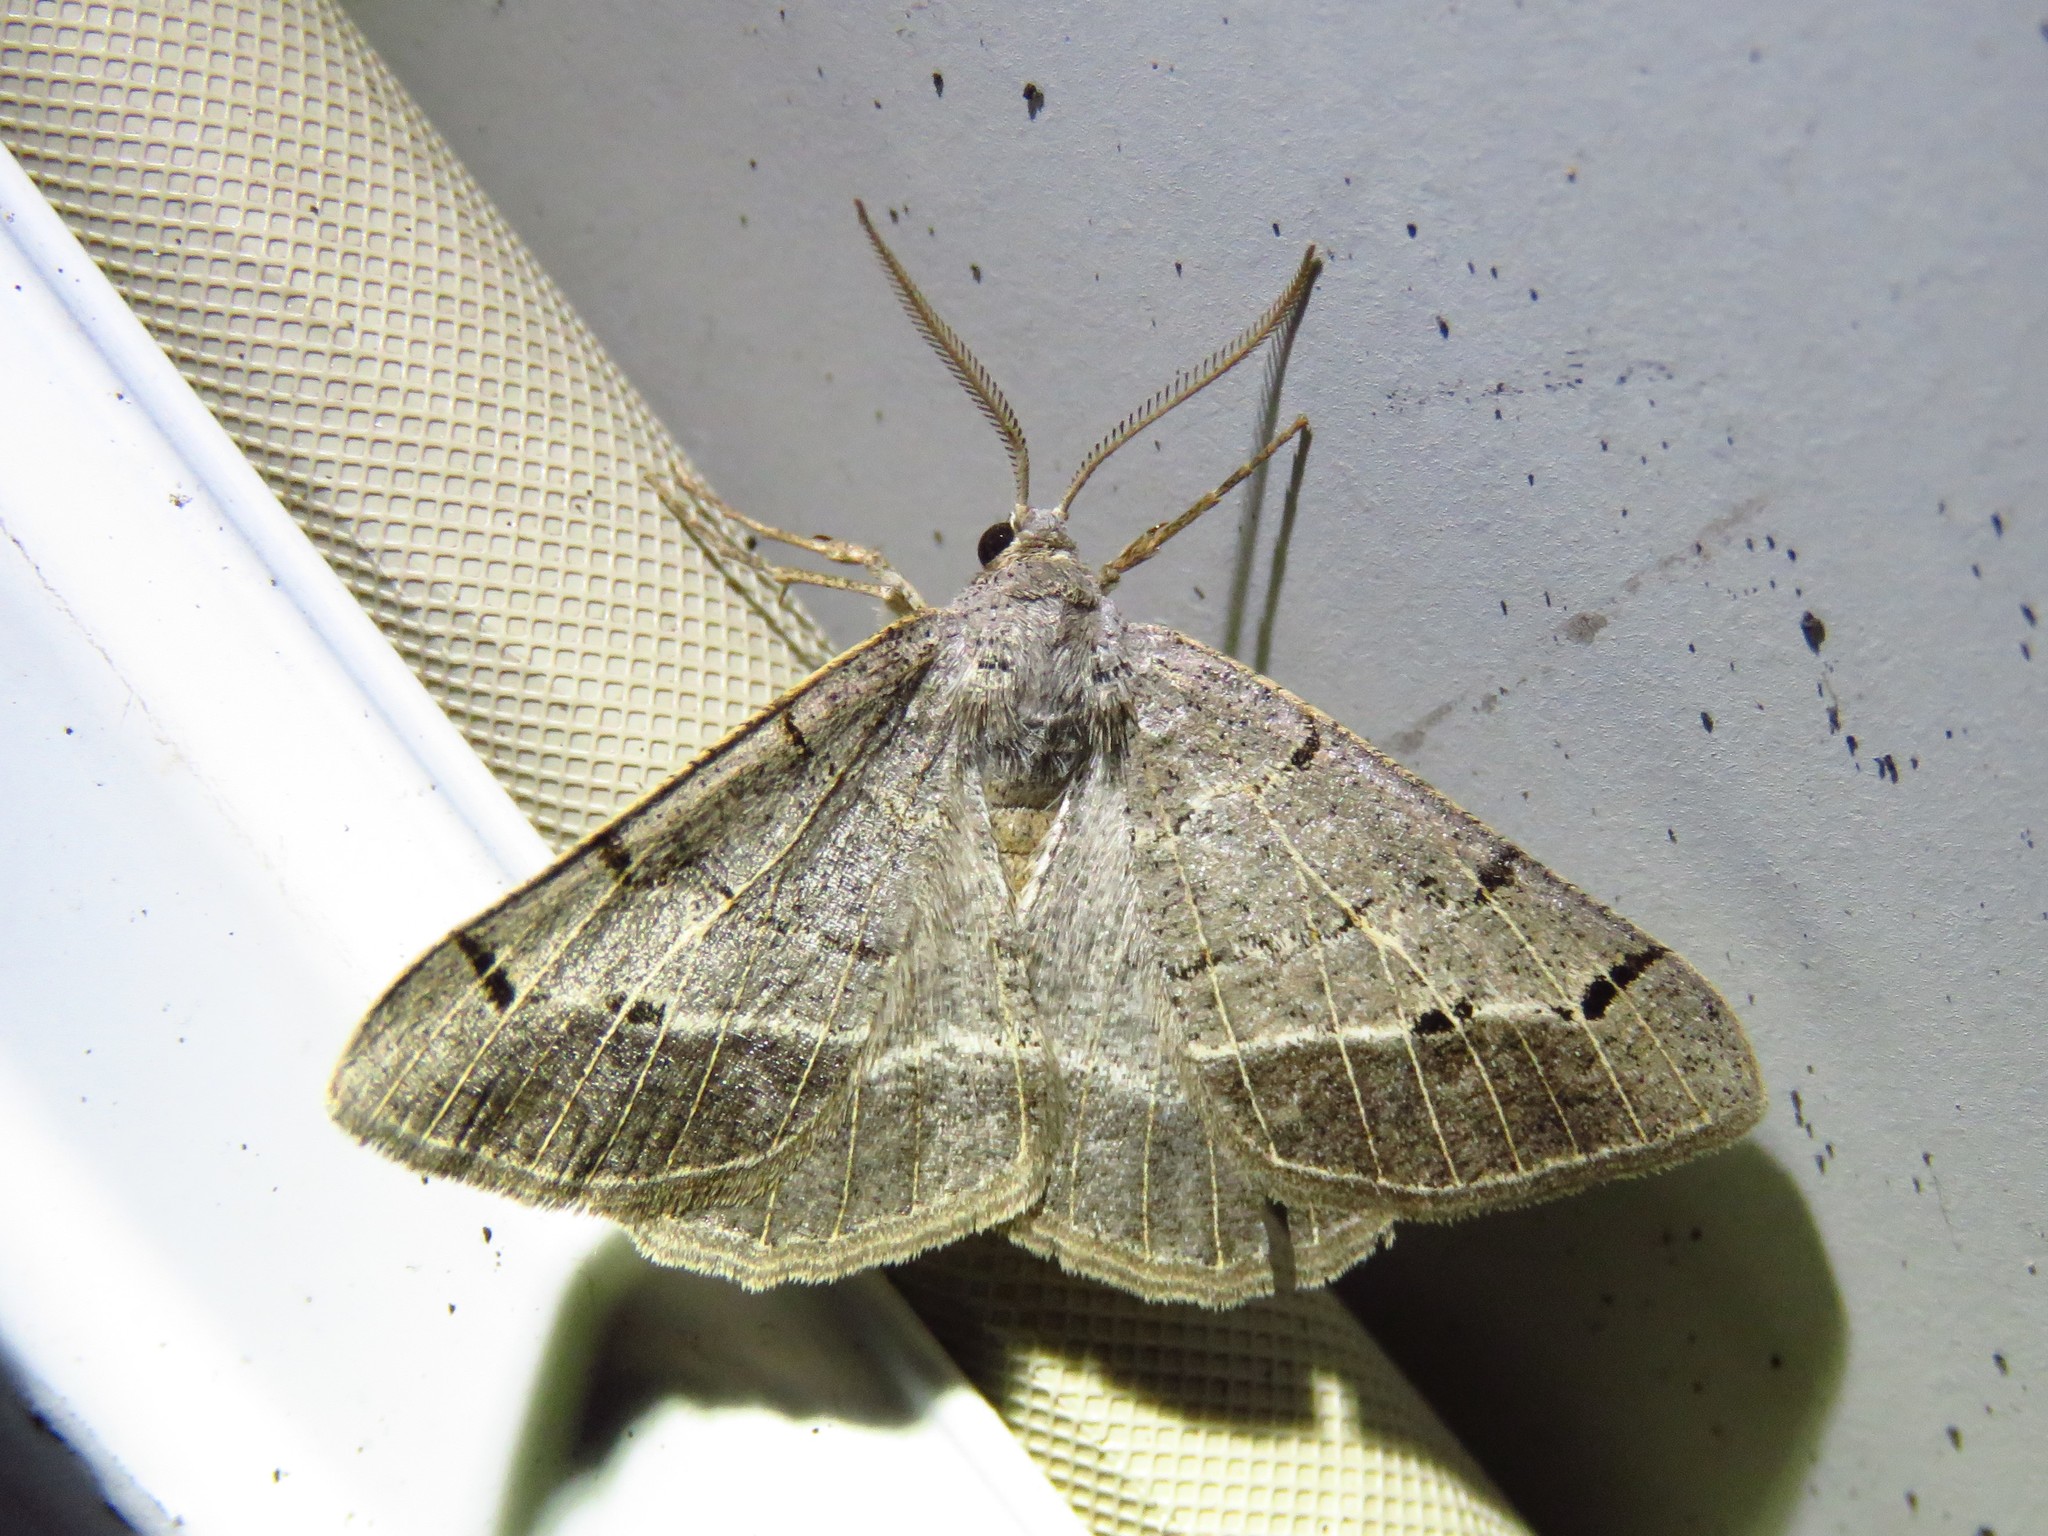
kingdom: Animalia
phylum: Arthropoda
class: Insecta
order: Lepidoptera
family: Geometridae
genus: Isturgia
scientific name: Isturgia dislocaria
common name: Pale-viened enconista
